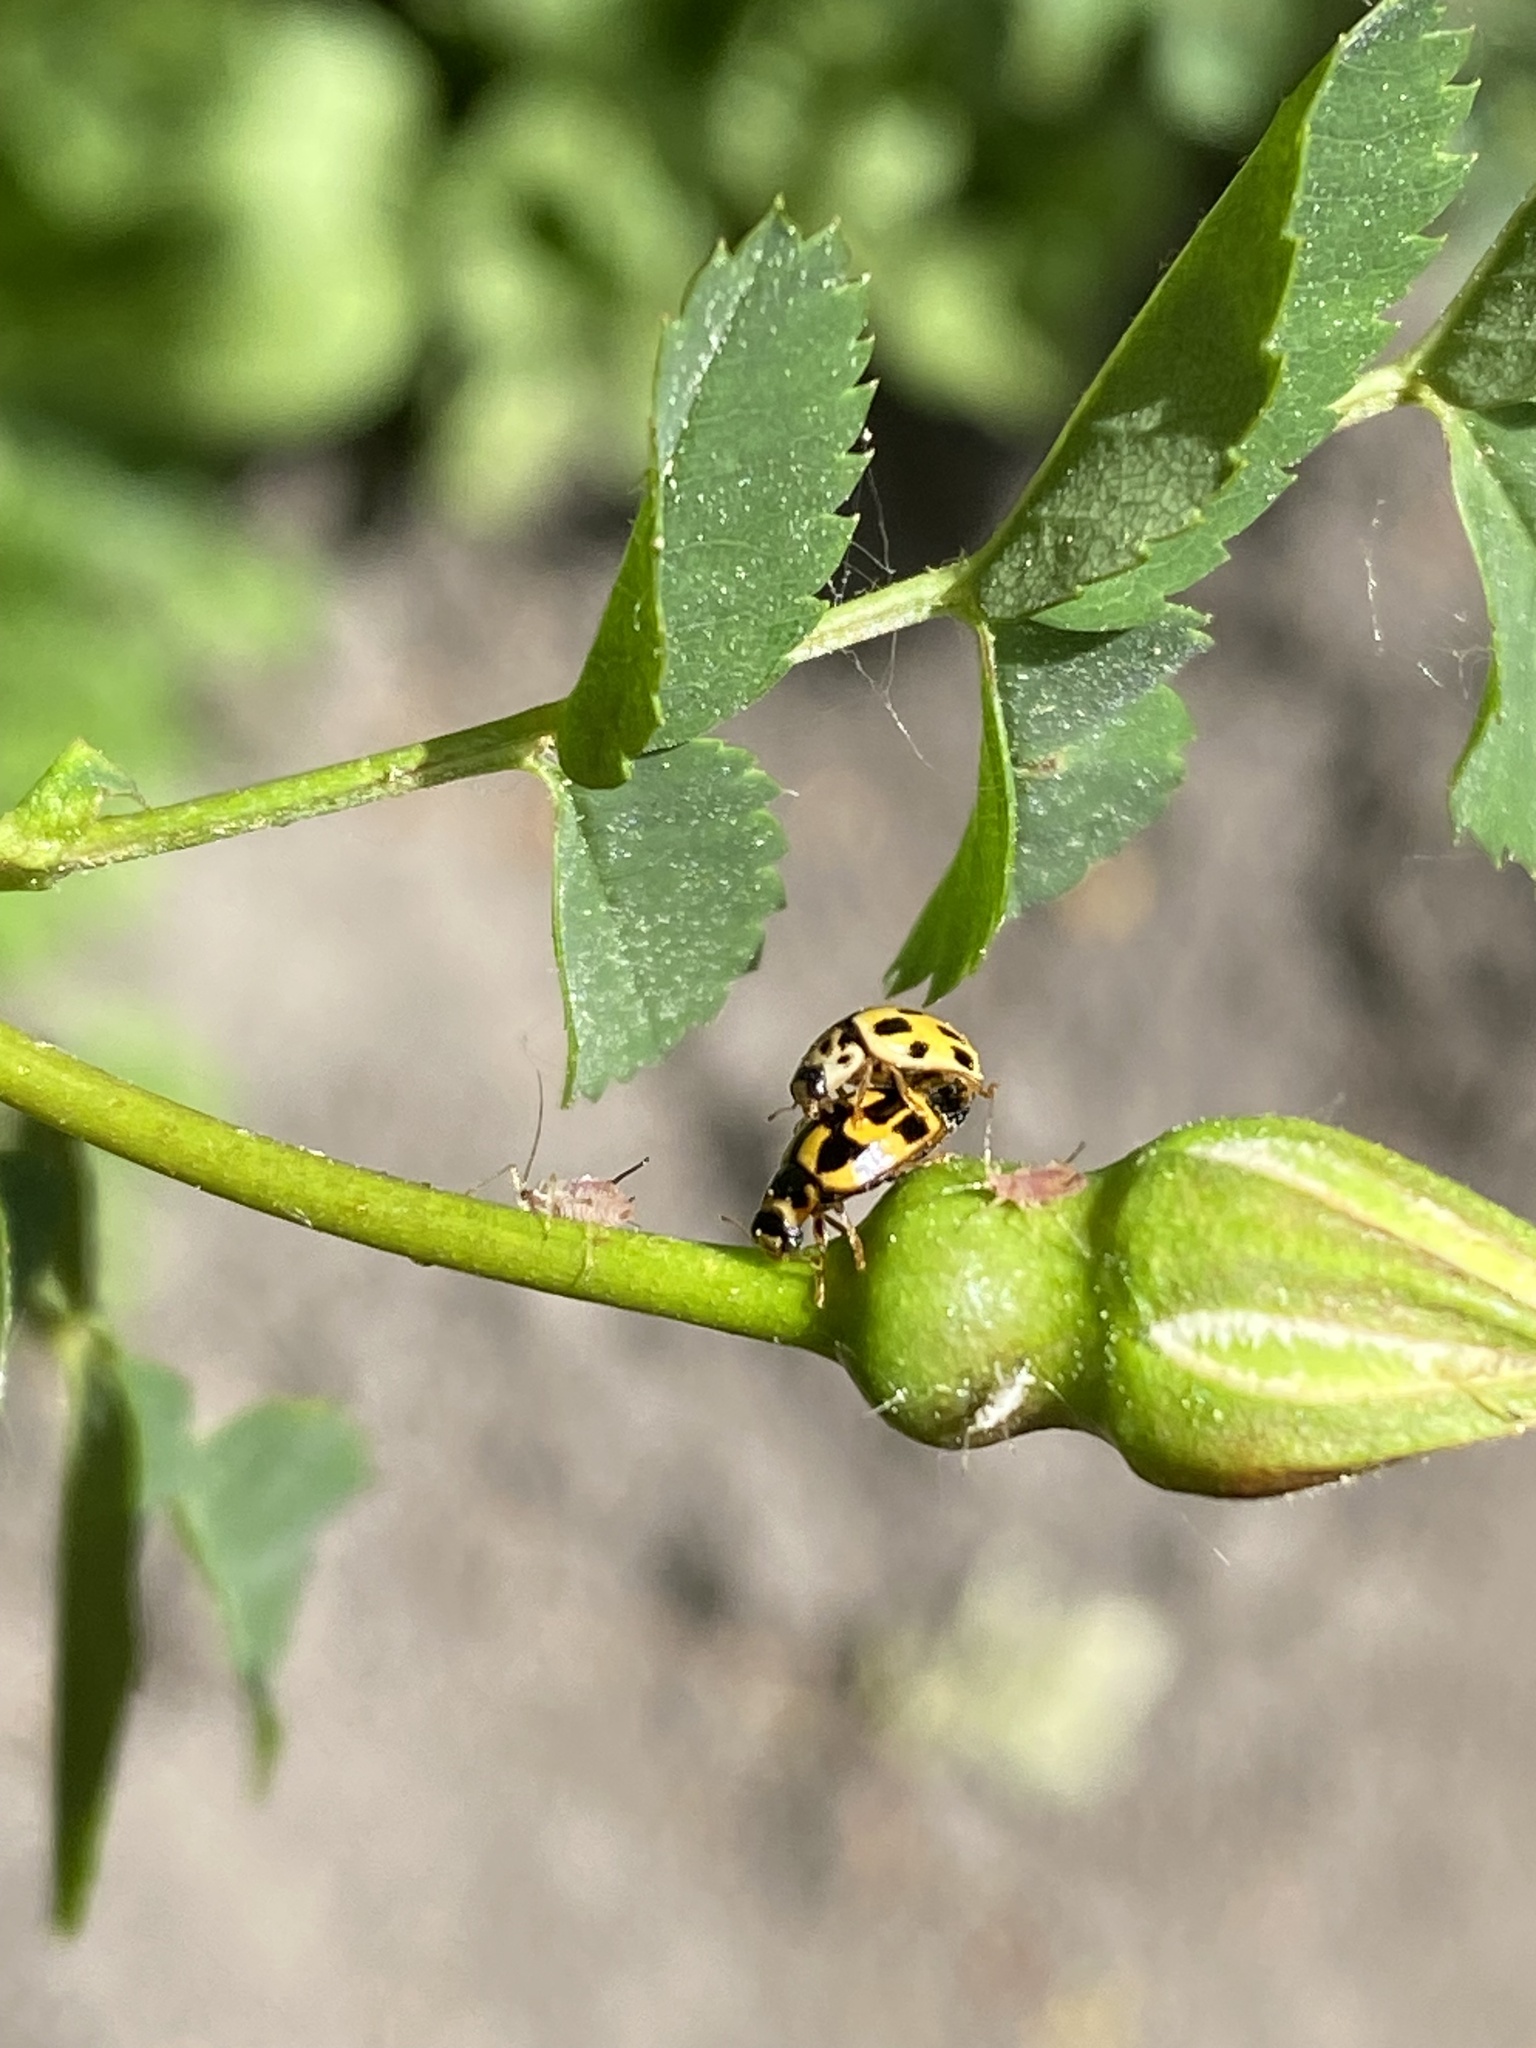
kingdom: Animalia
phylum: Arthropoda
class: Insecta
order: Coleoptera
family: Coccinellidae
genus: Propylaea
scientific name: Propylaea quatuordecimpunctata
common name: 14-spotted ladybird beetle
